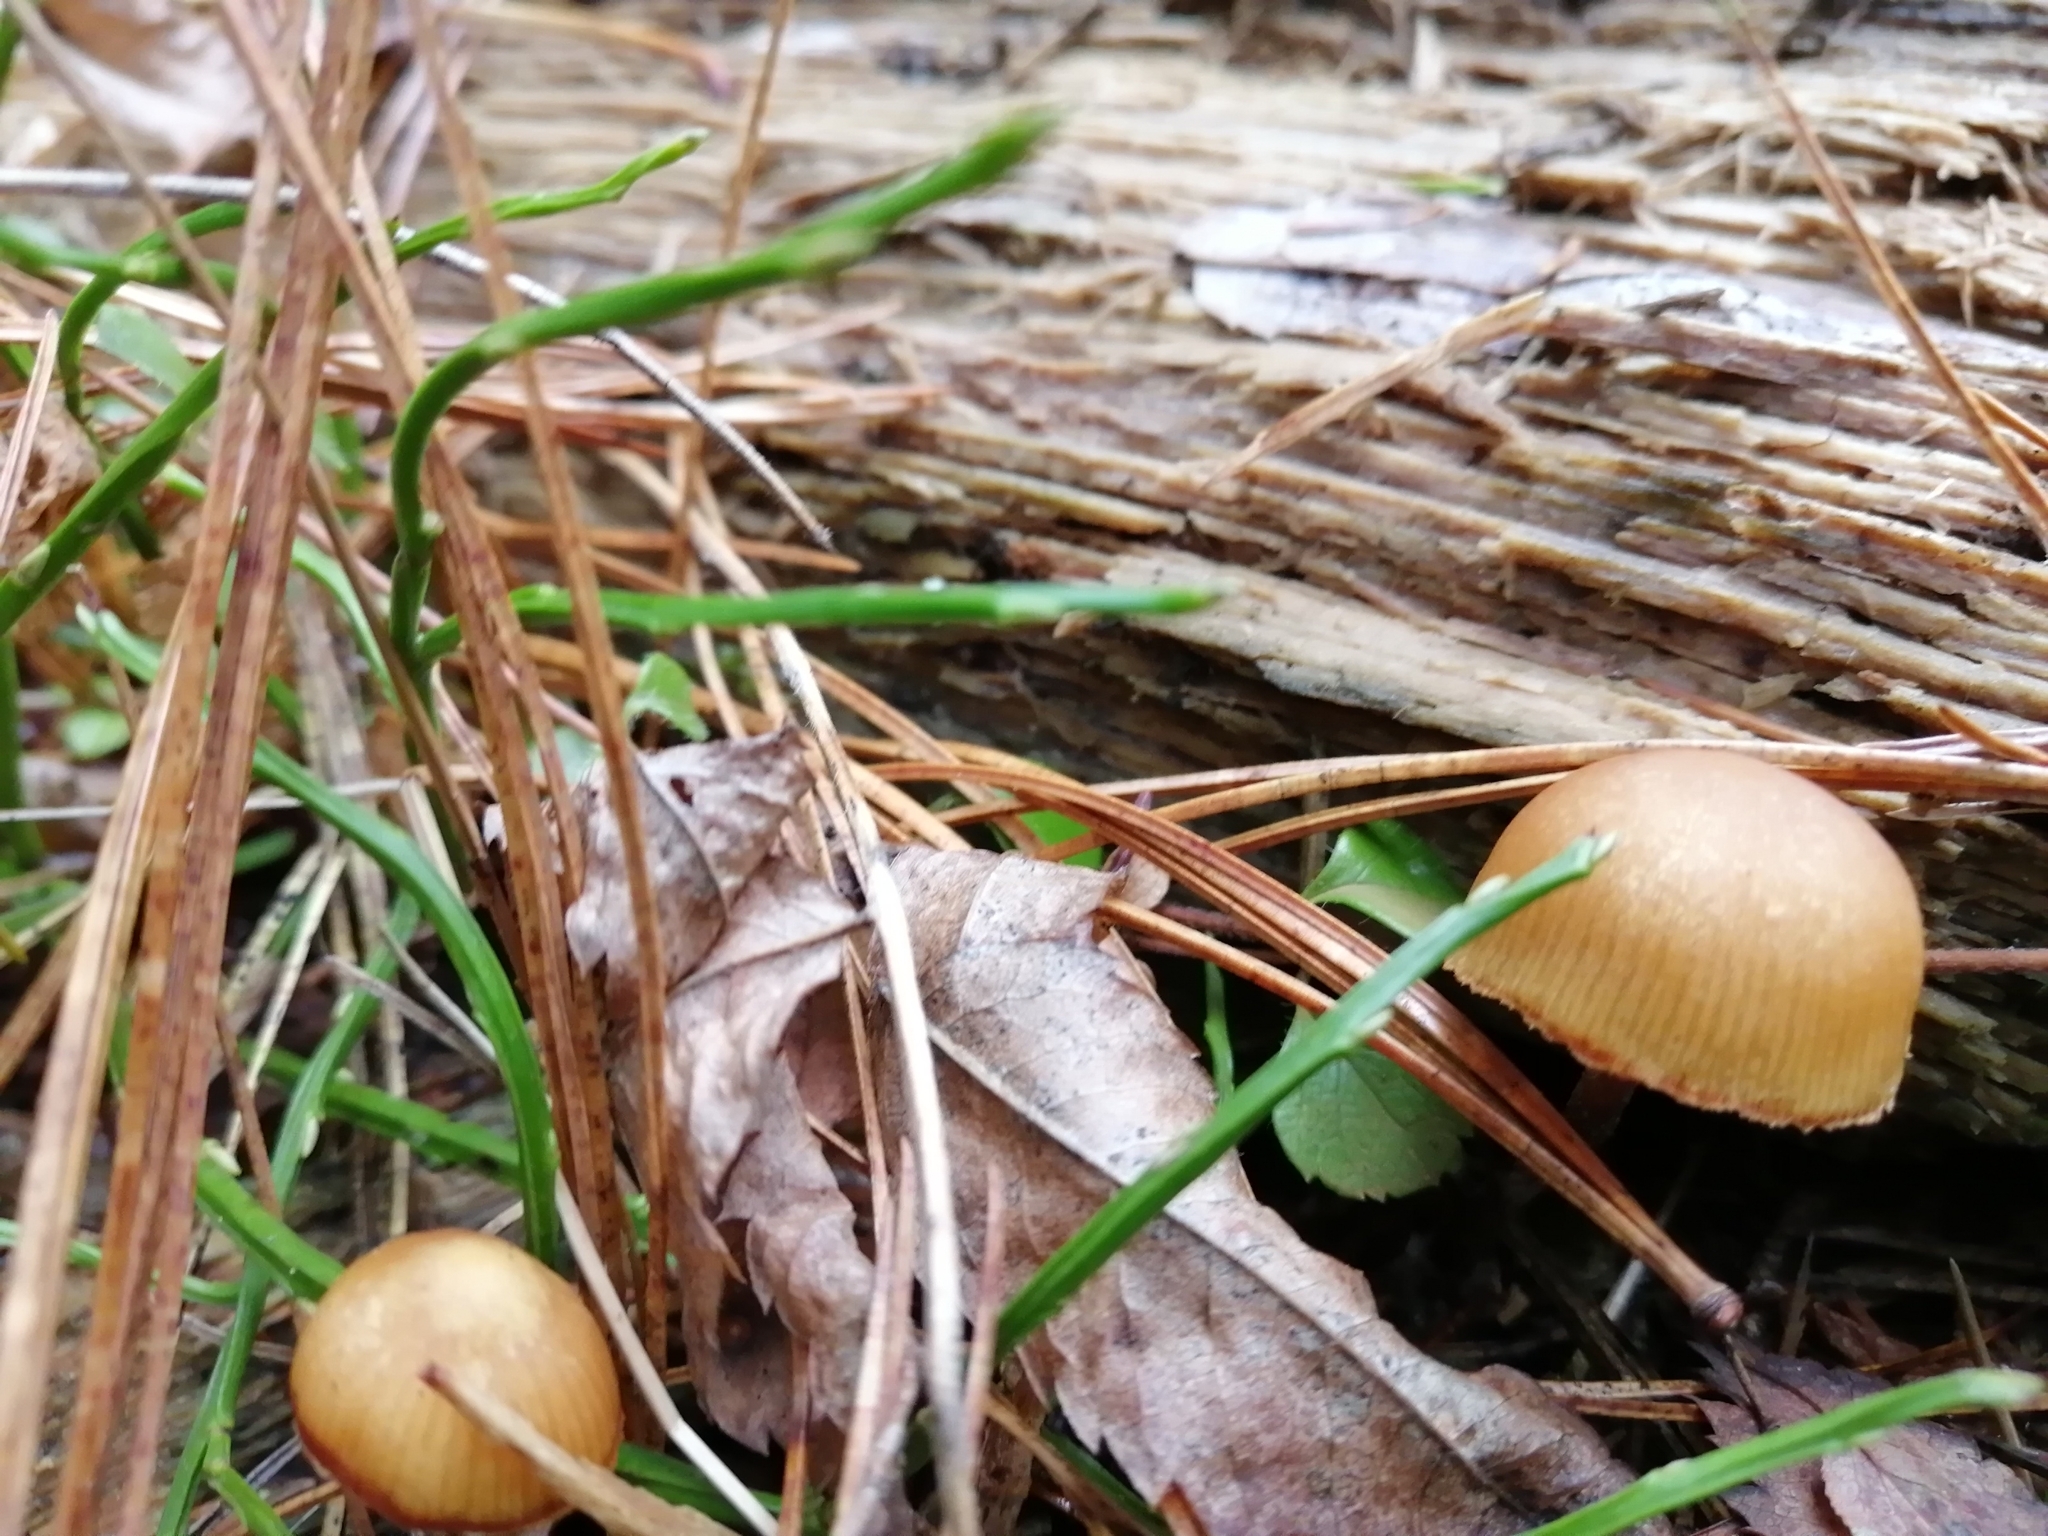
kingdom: Fungi
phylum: Basidiomycota
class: Agaricomycetes
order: Agaricales
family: Hymenogastraceae
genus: Galerina
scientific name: Galerina marginata
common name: Funeral bell
